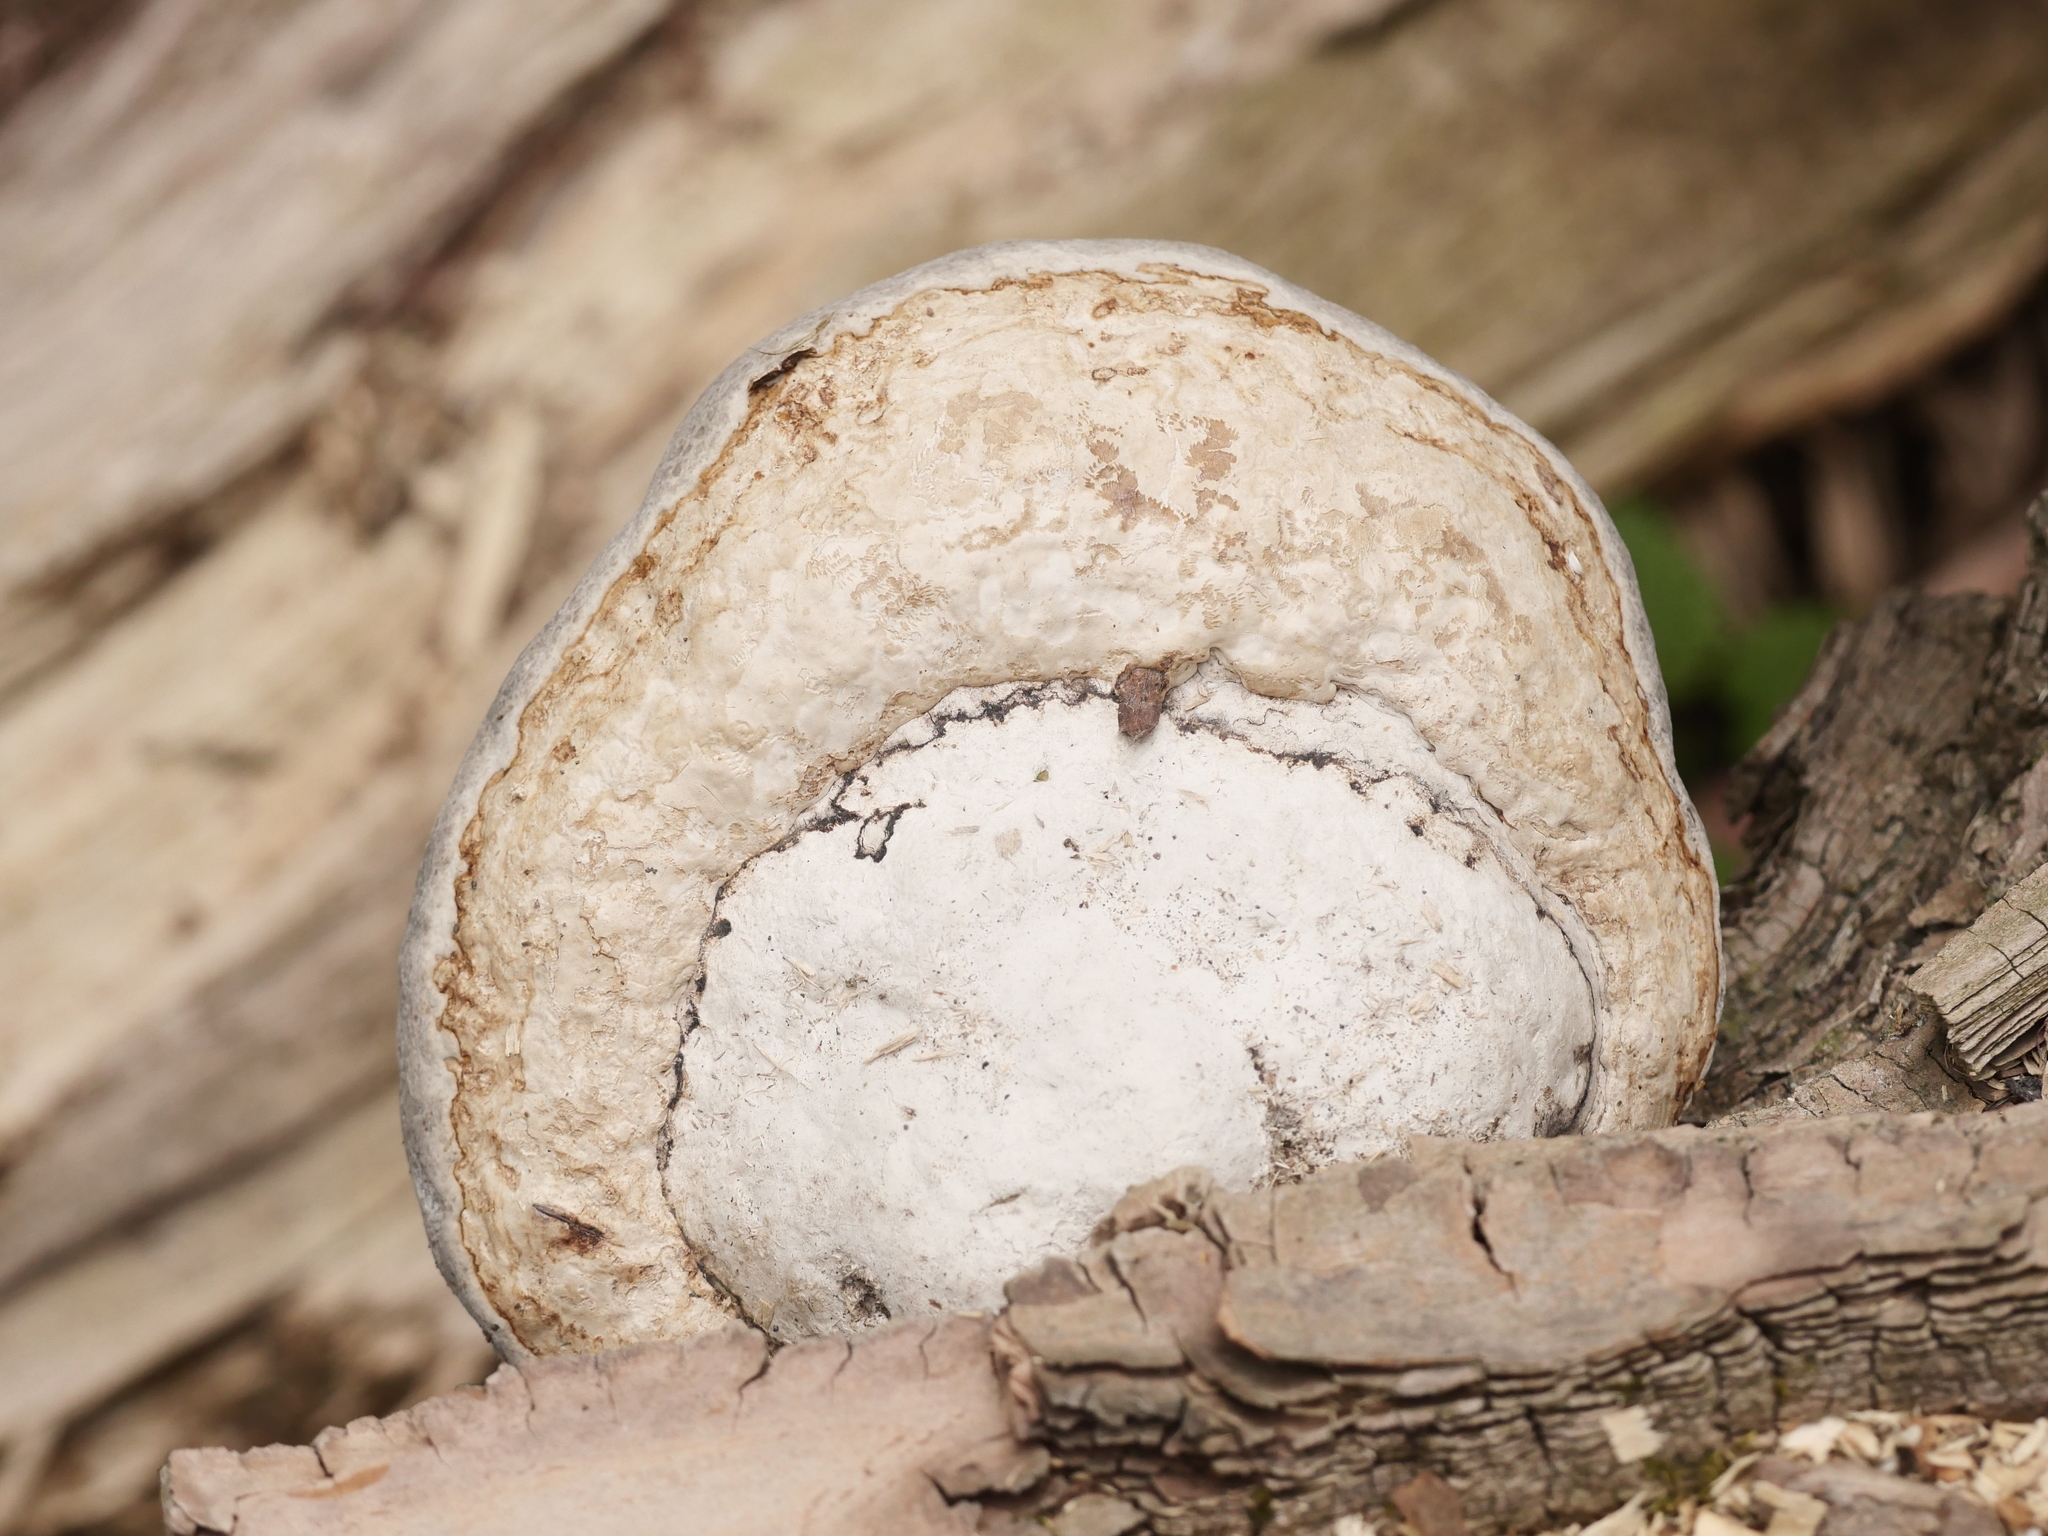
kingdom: Fungi
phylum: Basidiomycota
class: Agaricomycetes
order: Polyporales
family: Polyporaceae
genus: Fomes
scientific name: Fomes fomentarius
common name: Hoof fungus
